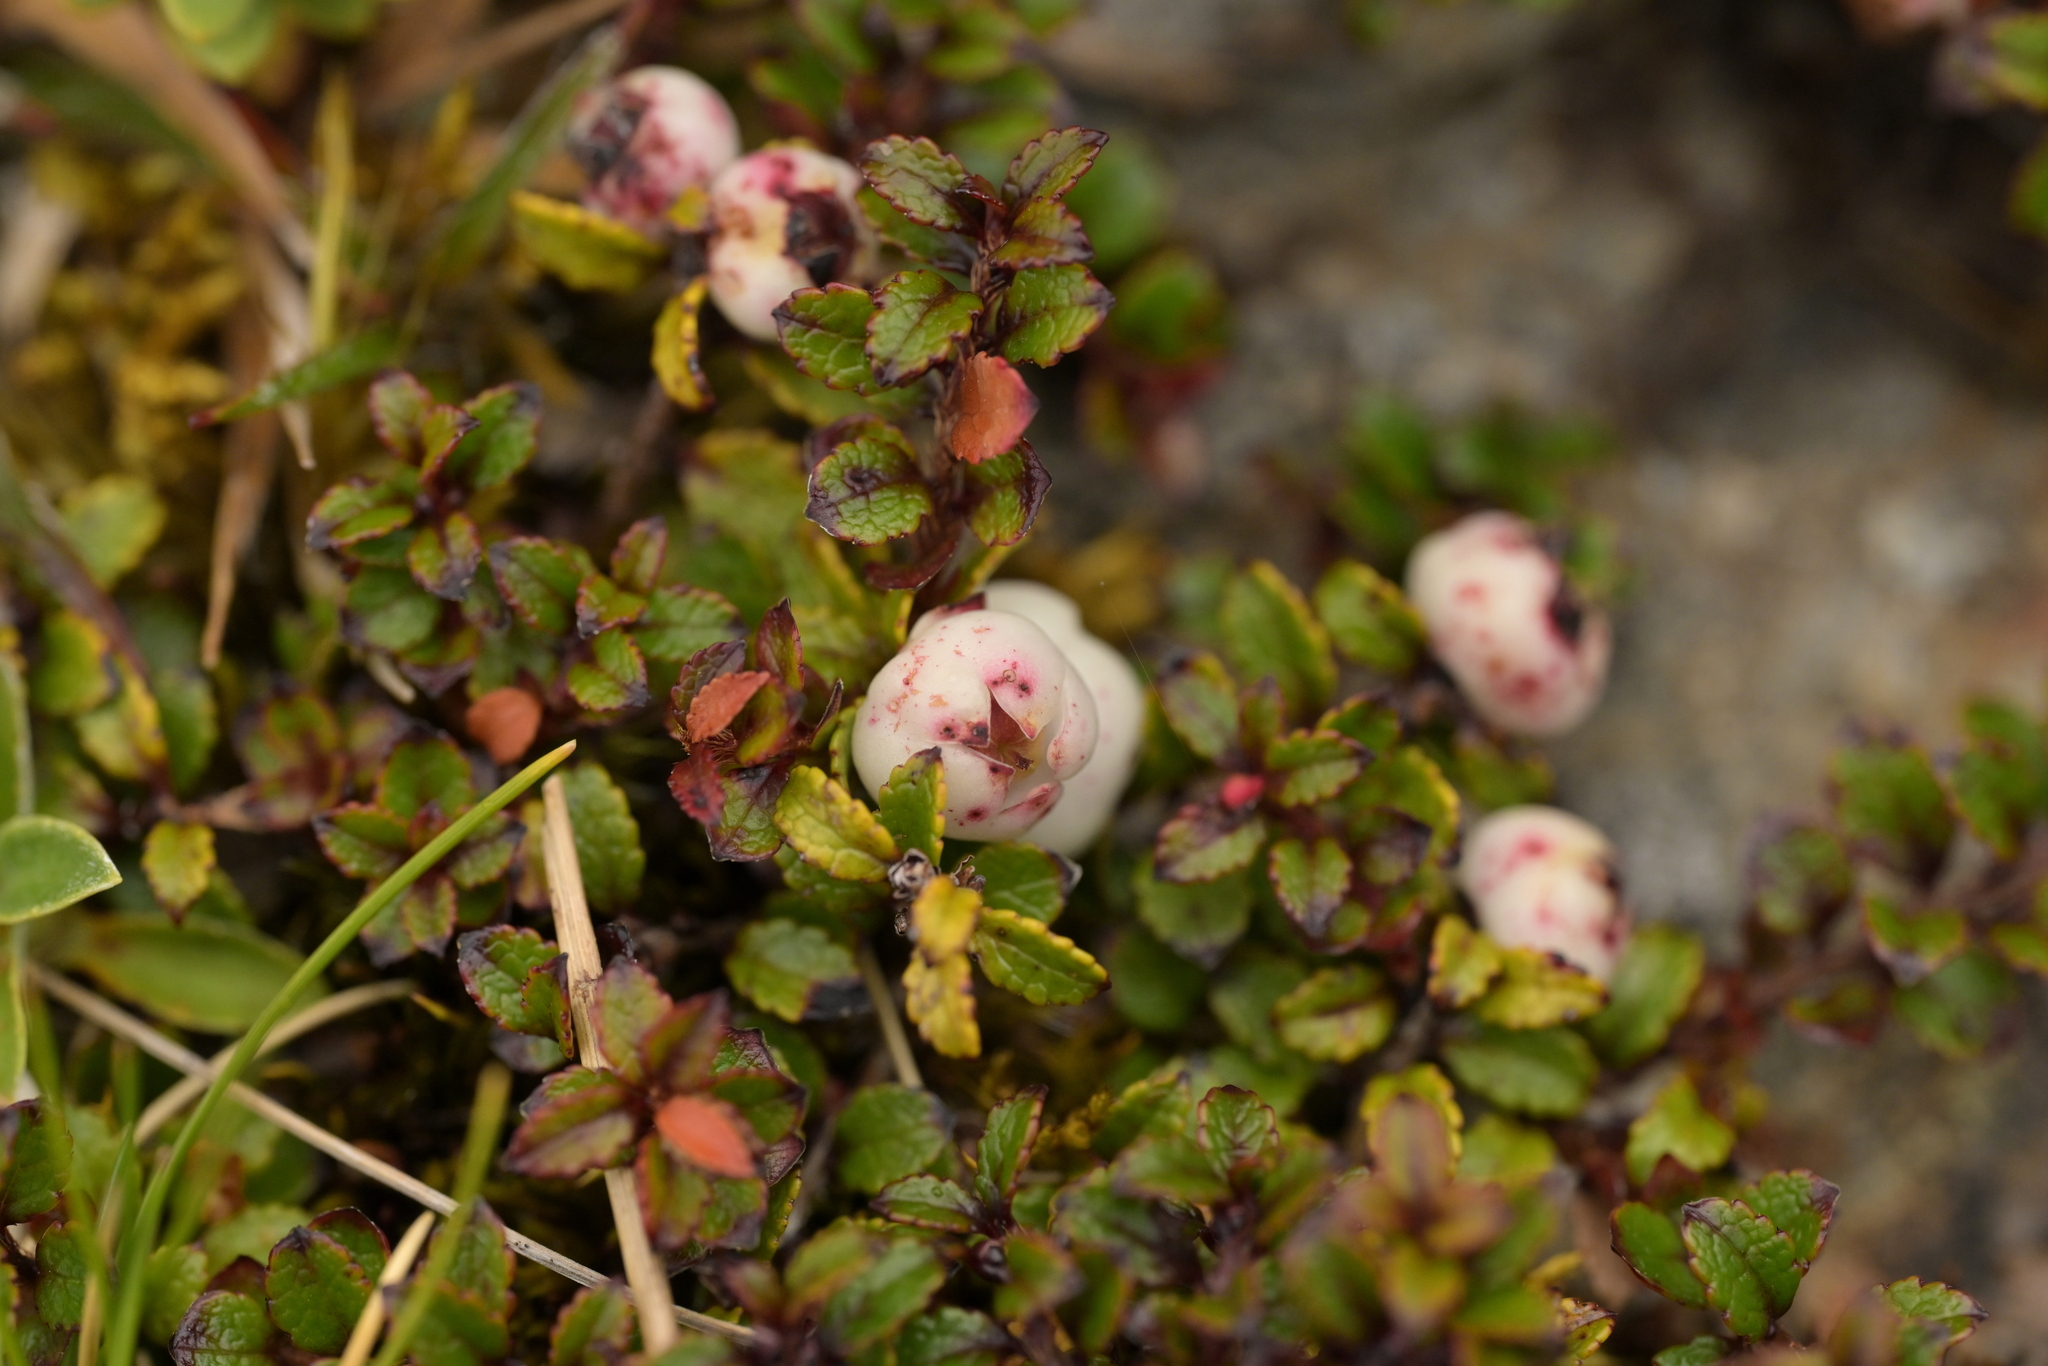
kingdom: Plantae
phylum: Tracheophyta
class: Magnoliopsida
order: Ericales
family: Ericaceae
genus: Gaultheria
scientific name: Gaultheria depressa
